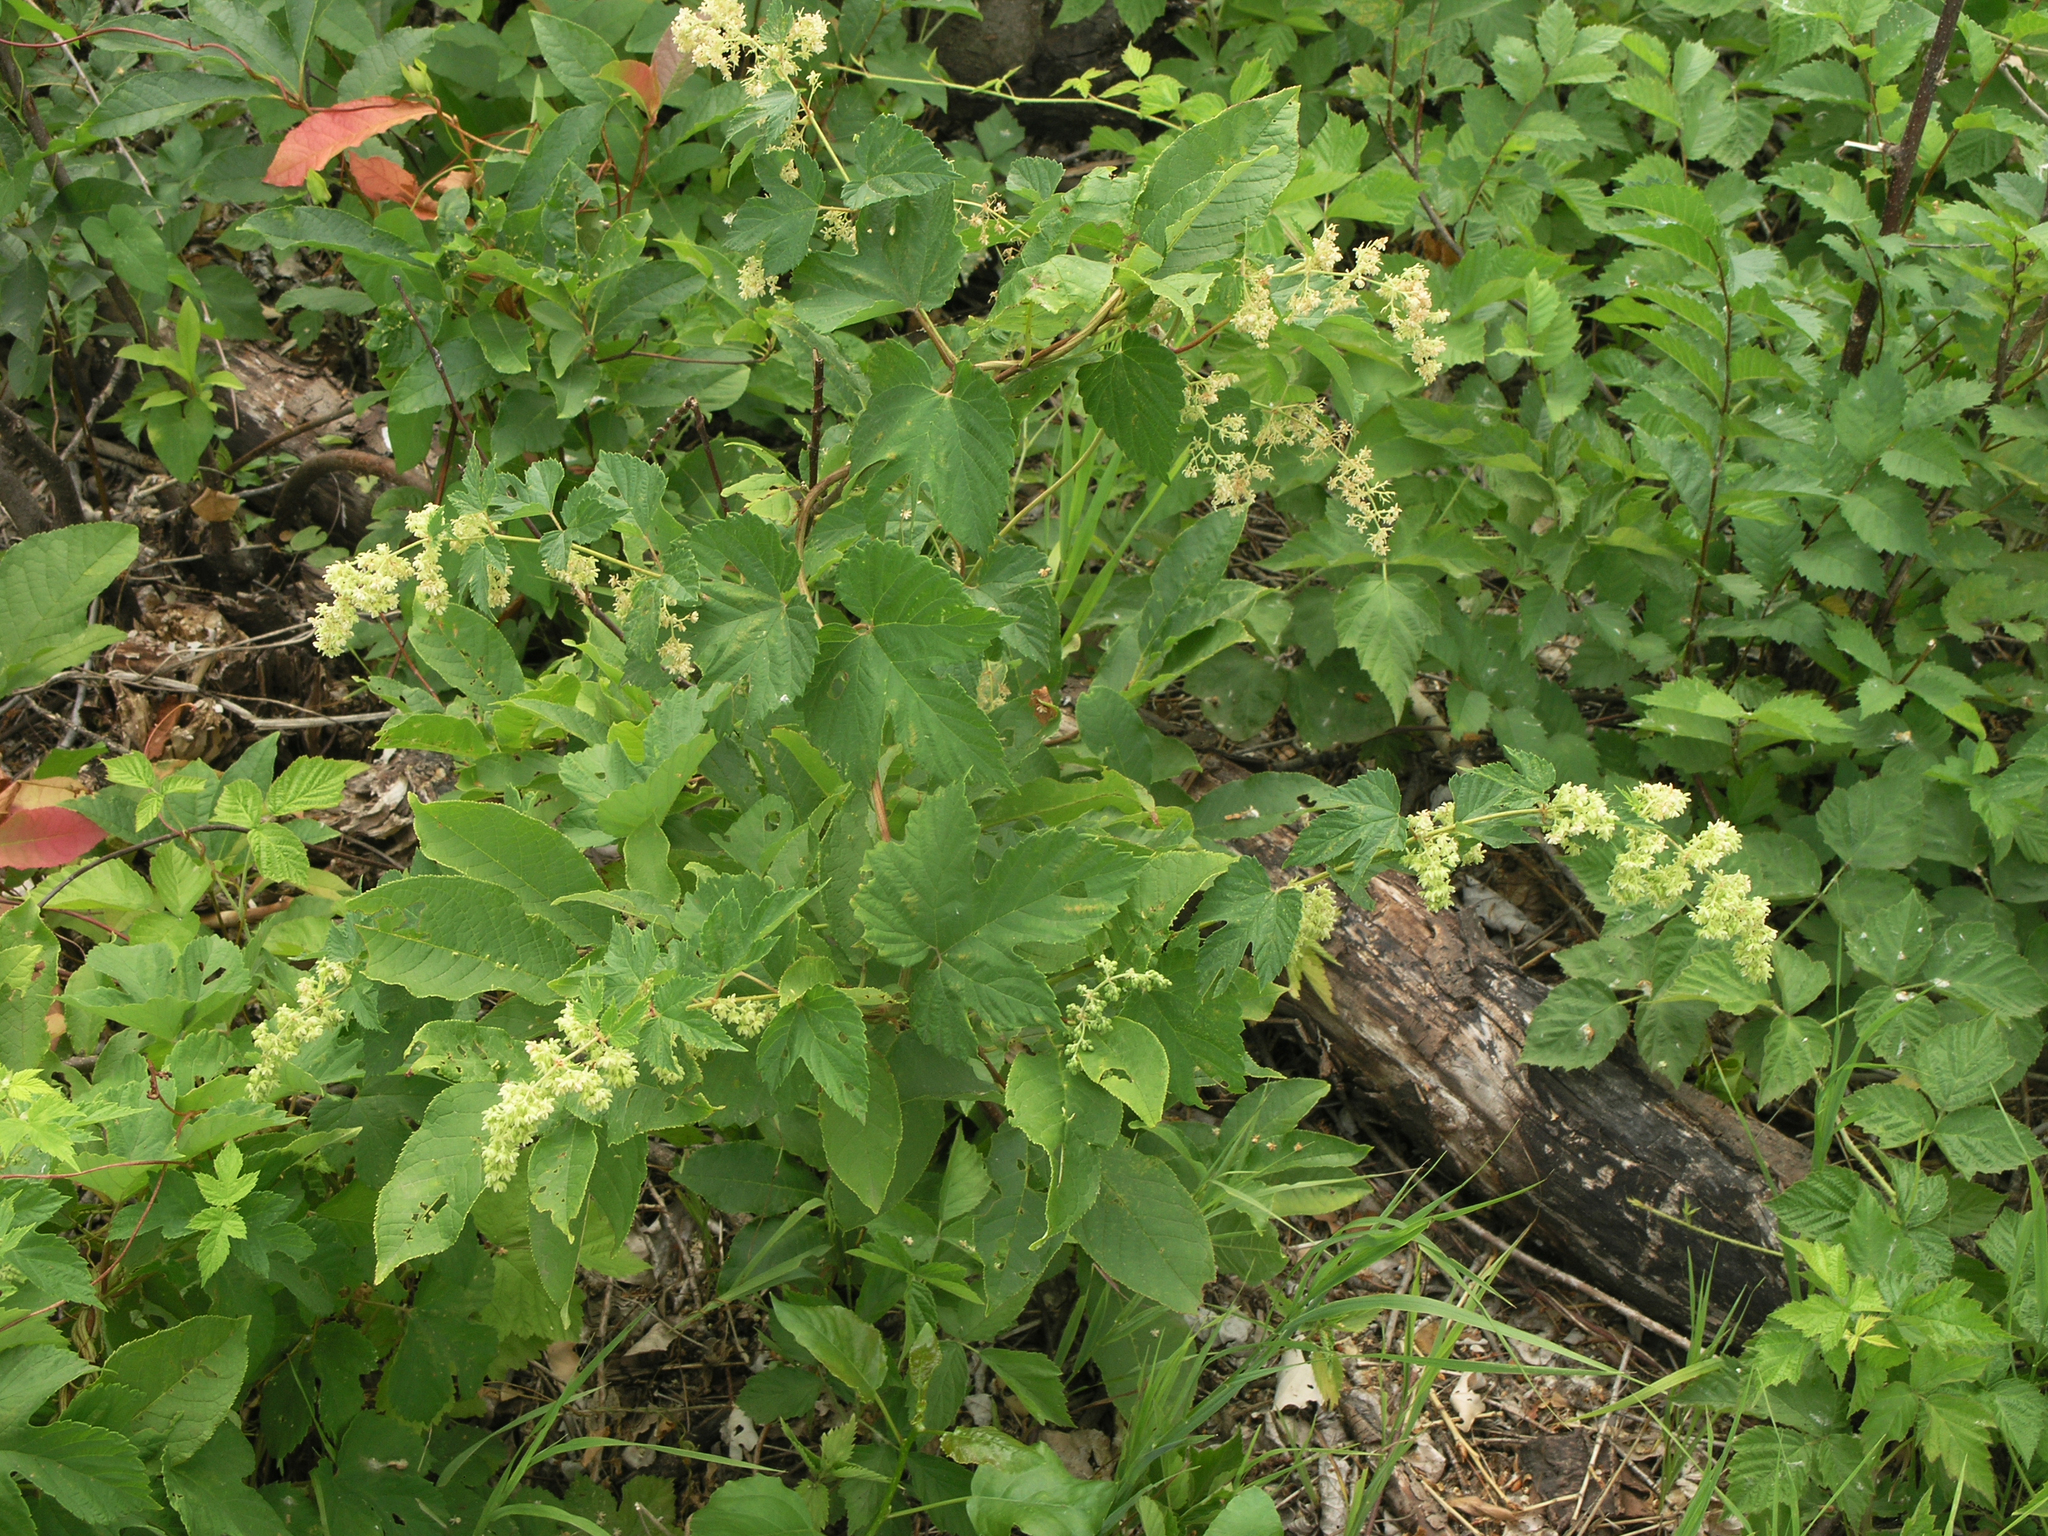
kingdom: Plantae
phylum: Tracheophyta
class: Magnoliopsida
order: Rosales
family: Cannabaceae
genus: Humulus
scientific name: Humulus lupulus
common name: Hop
